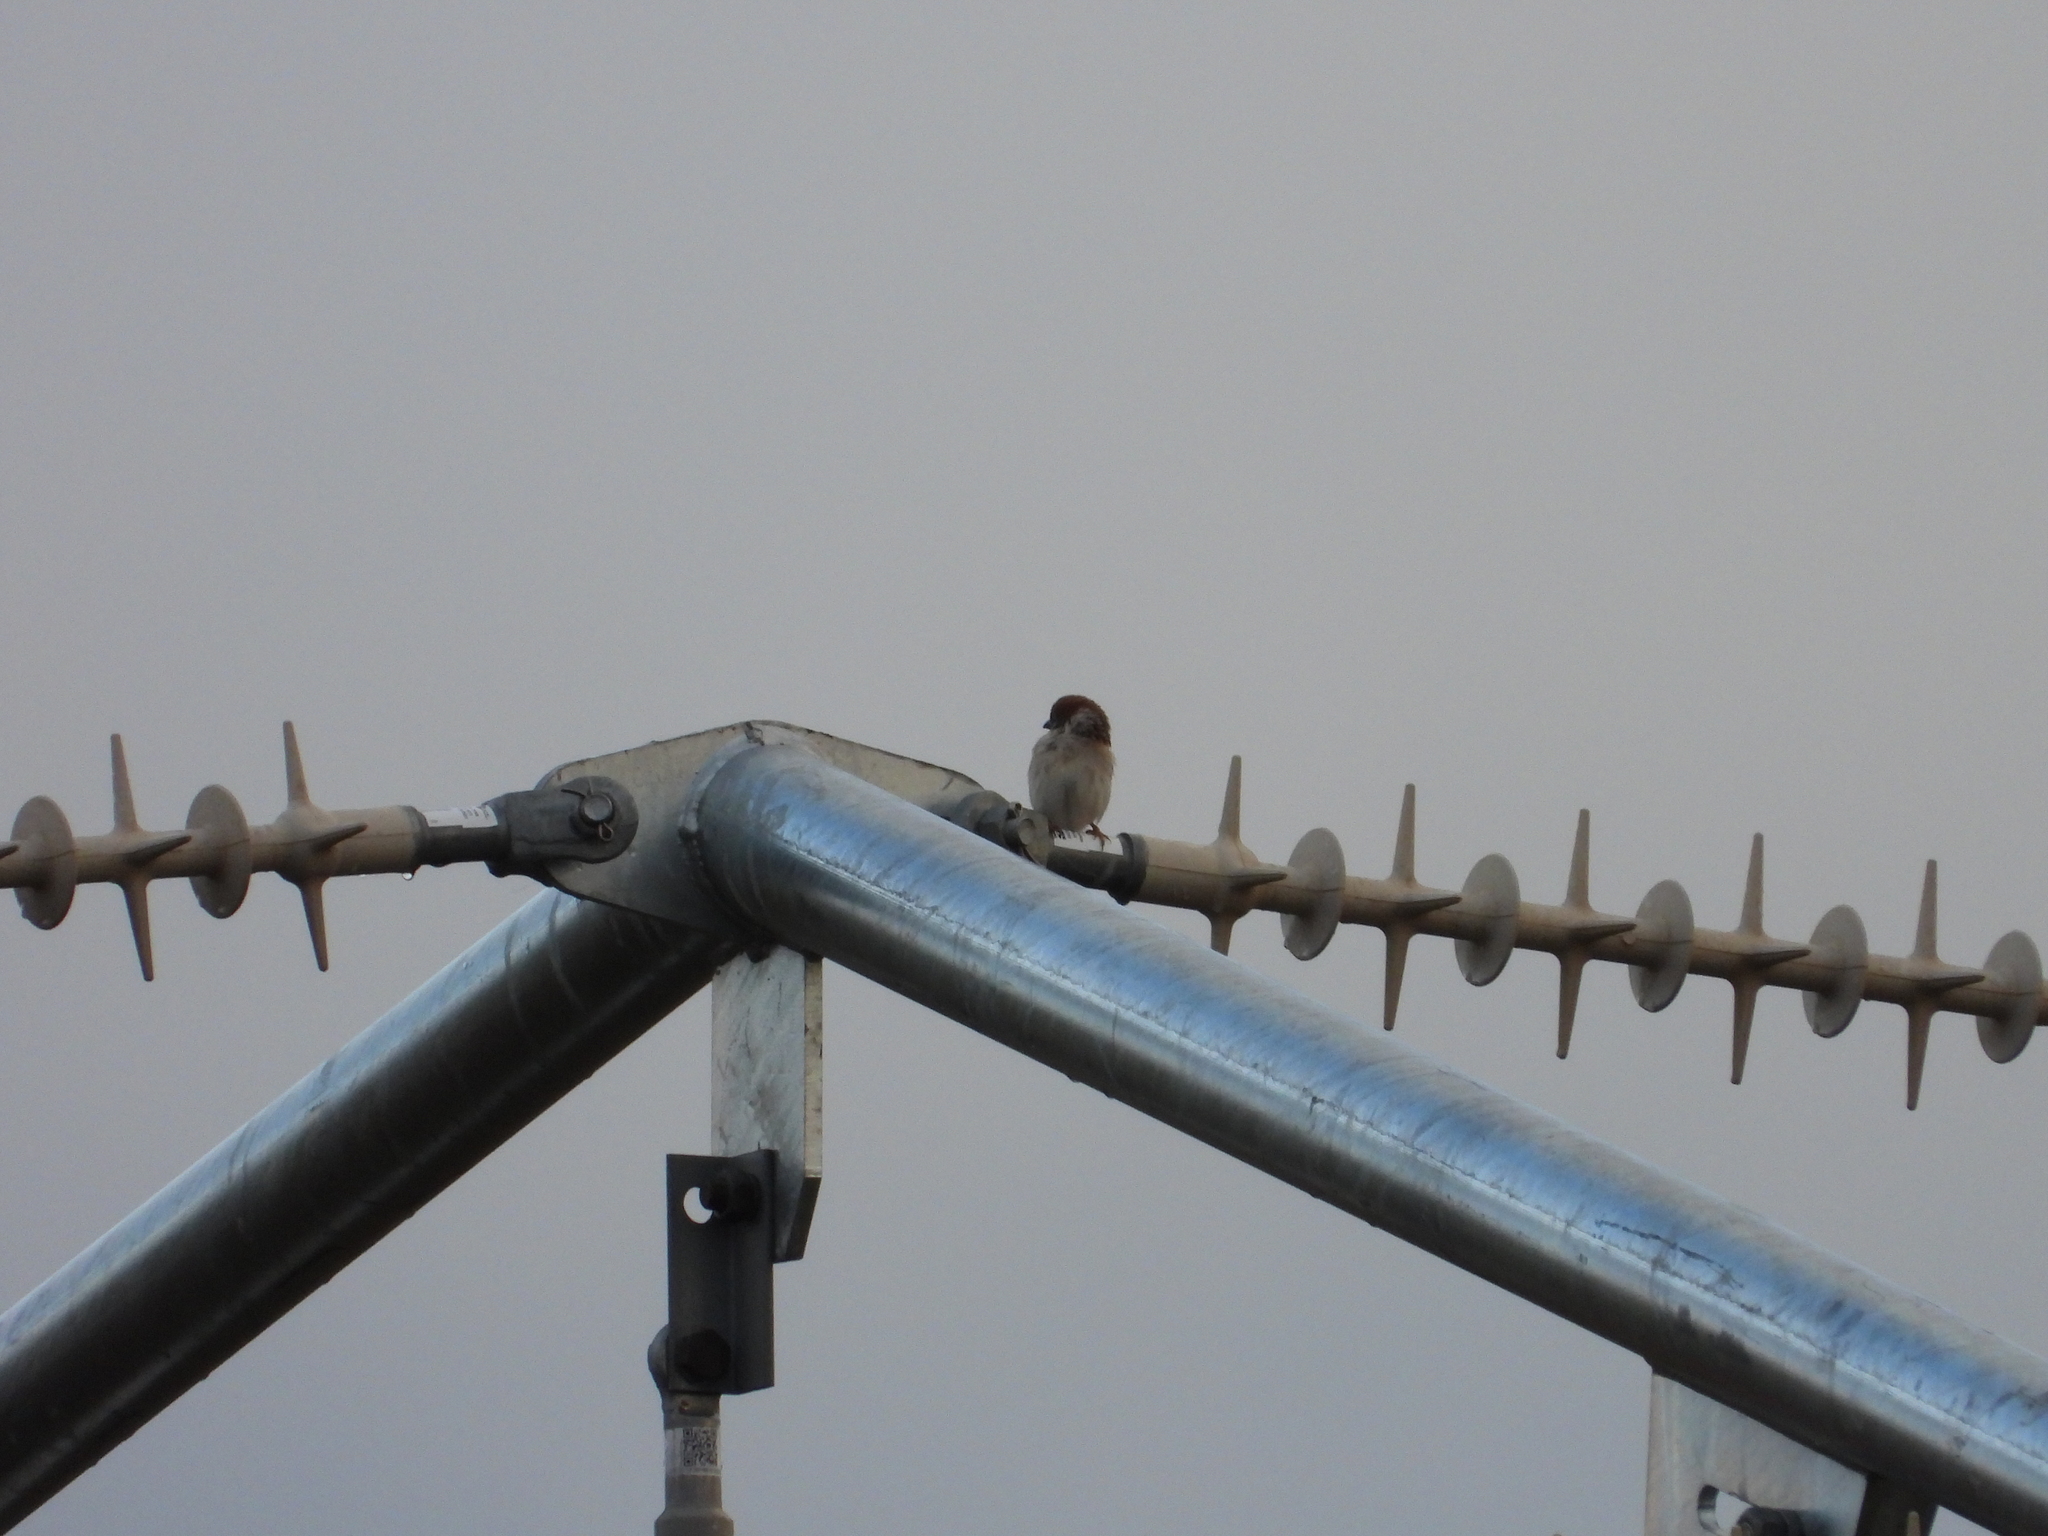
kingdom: Animalia
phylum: Chordata
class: Aves
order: Passeriformes
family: Passeridae
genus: Passer
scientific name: Passer montanus
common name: Eurasian tree sparrow
